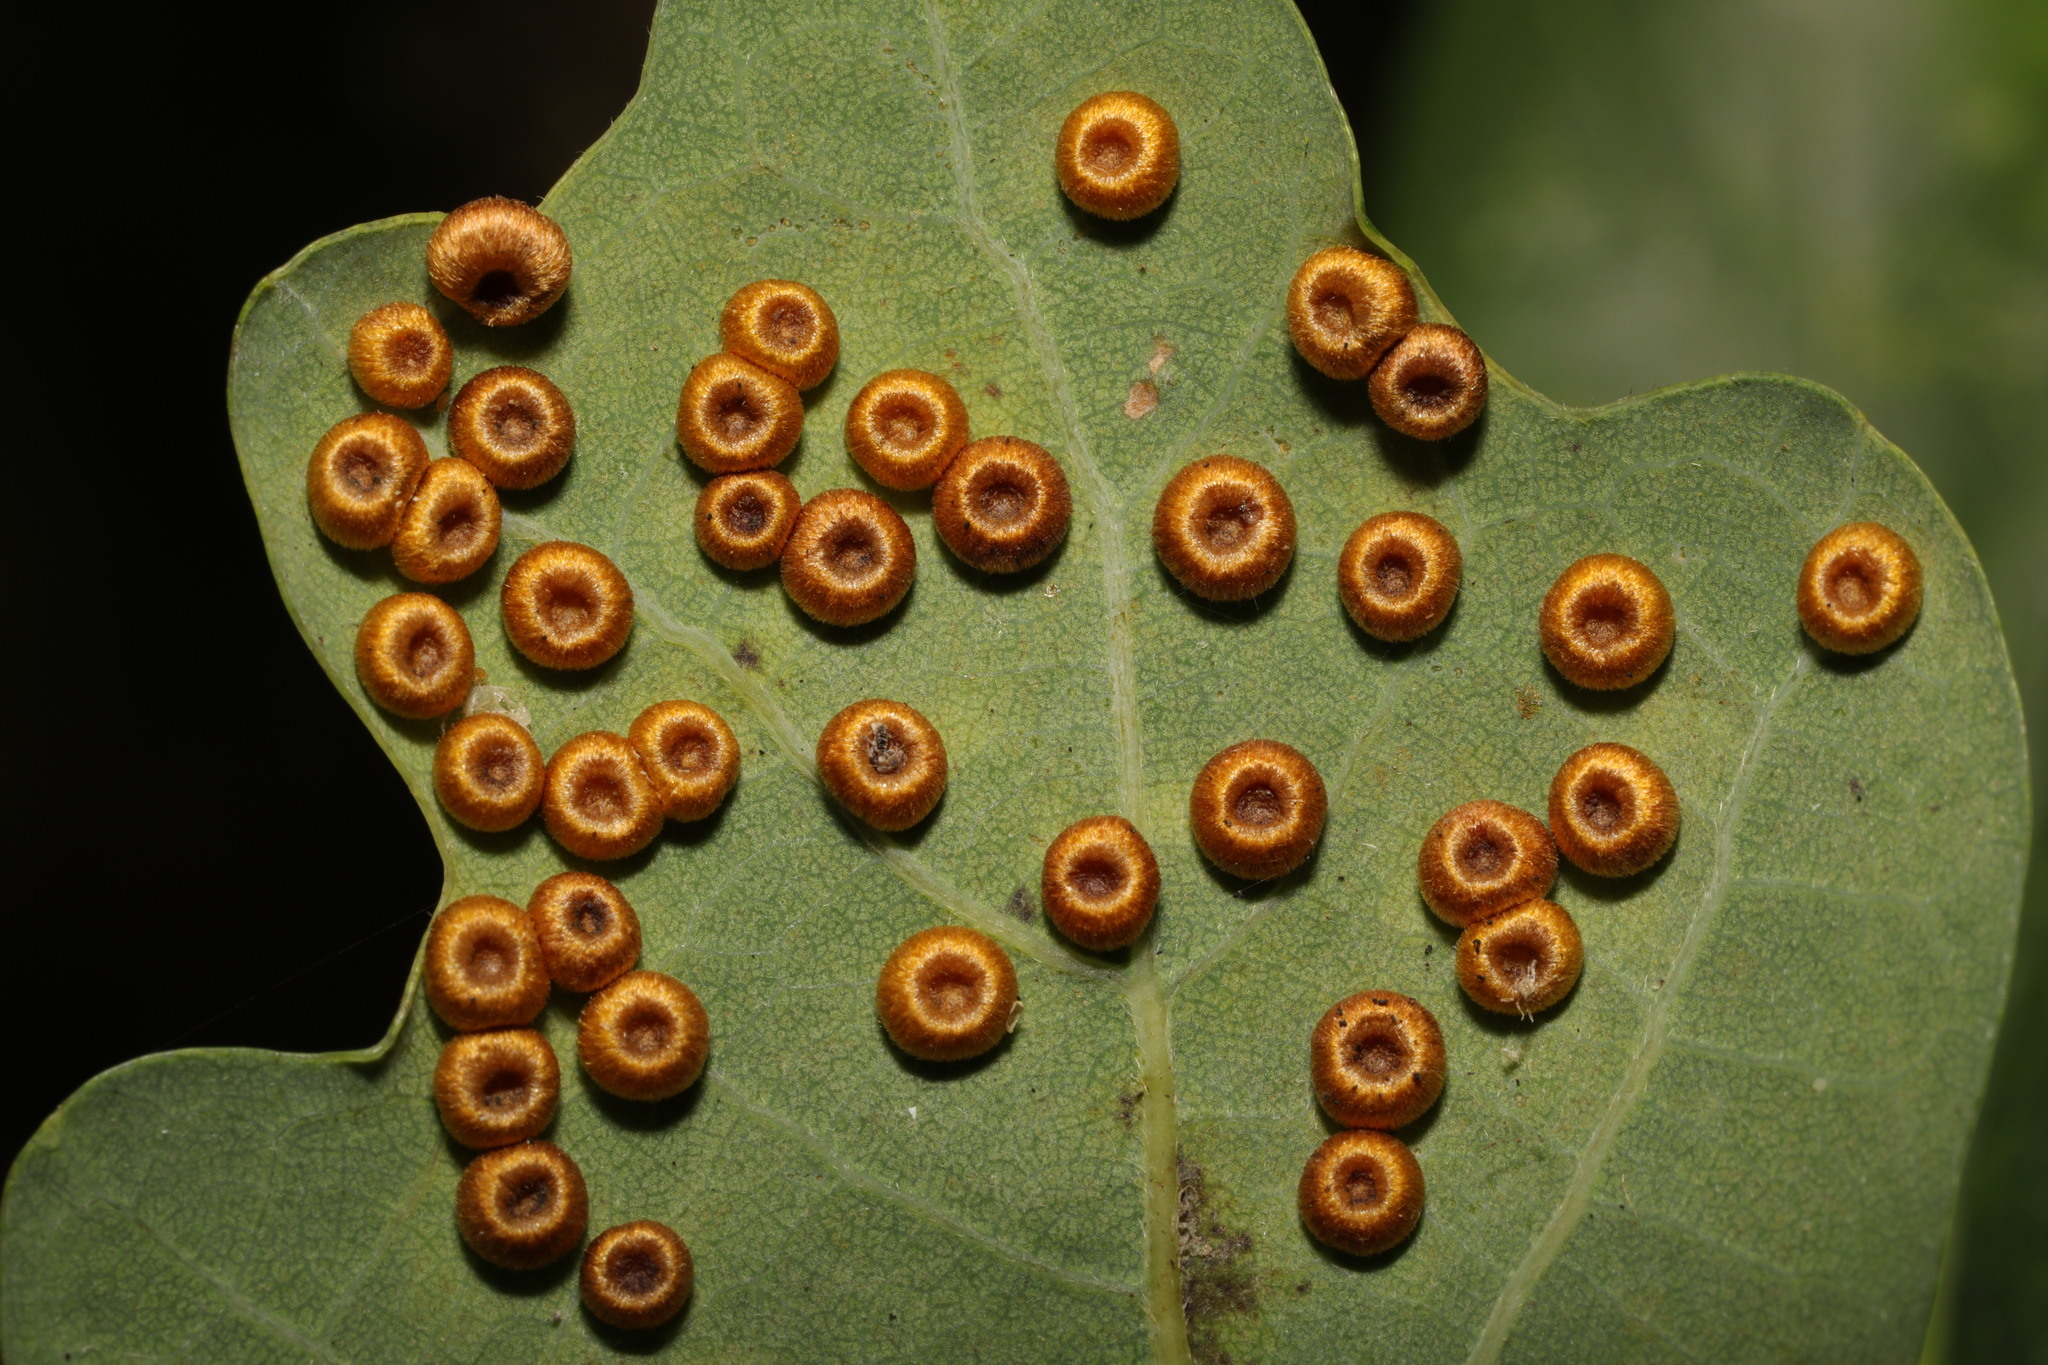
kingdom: Animalia
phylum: Arthropoda
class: Insecta
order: Hymenoptera
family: Cynipidae
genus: Neuroterus
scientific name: Neuroterus numismalis
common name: Silk-button spangle gall
